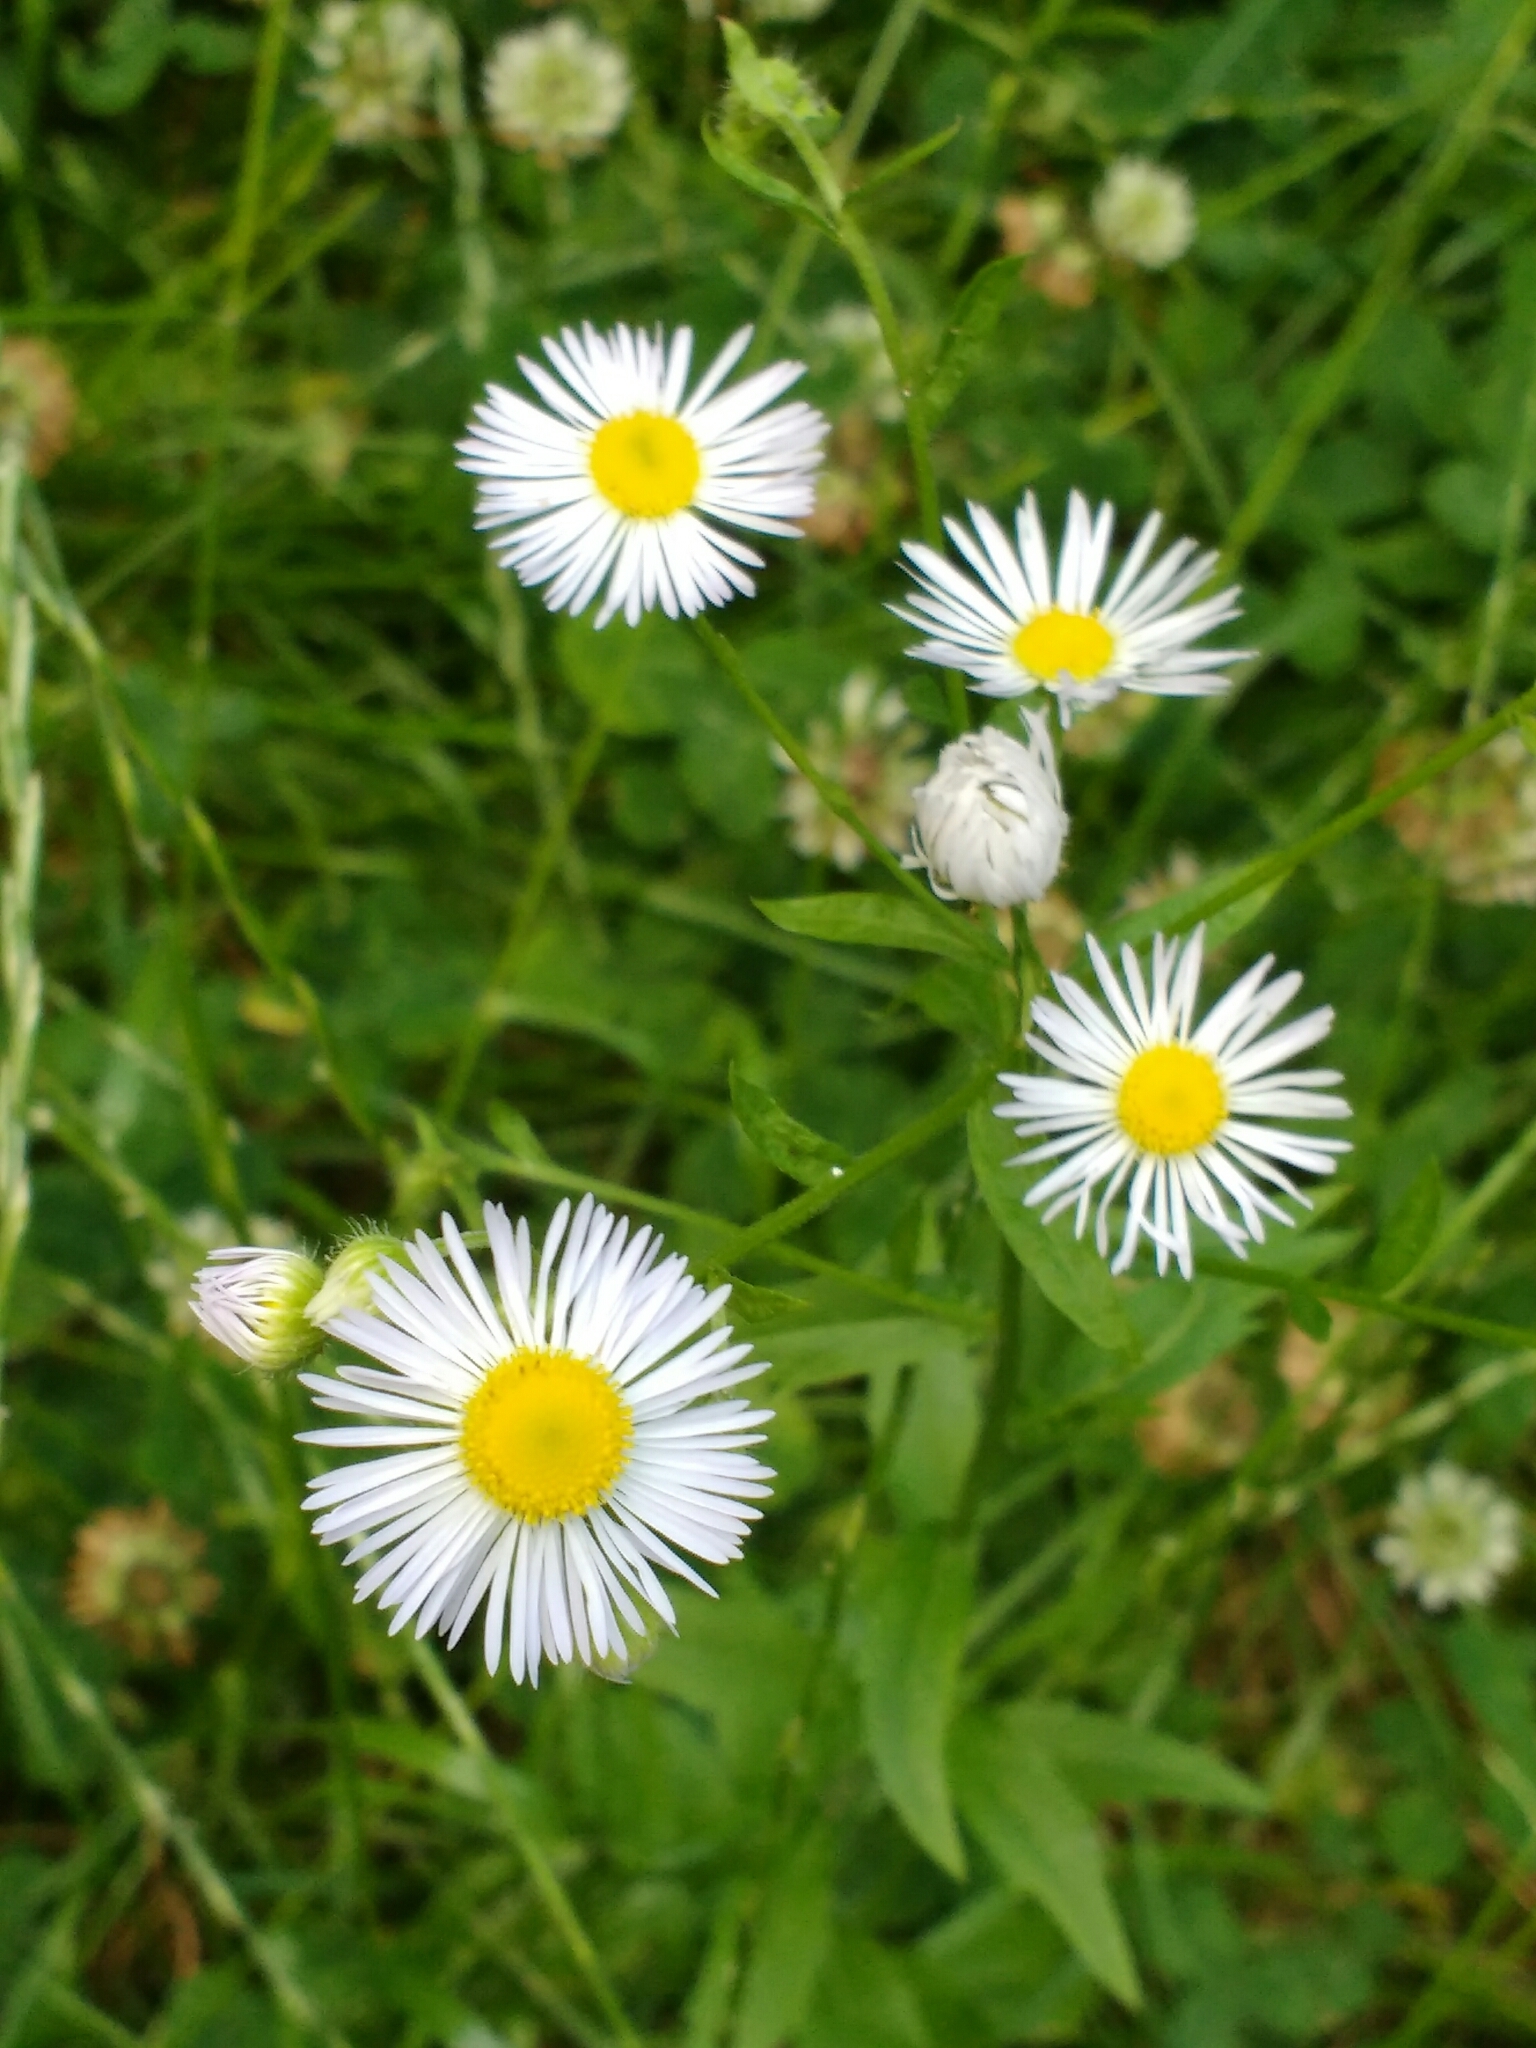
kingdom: Plantae
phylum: Tracheophyta
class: Magnoliopsida
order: Asterales
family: Asteraceae
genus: Erigeron
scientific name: Erigeron annuus
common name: Tall fleabane
